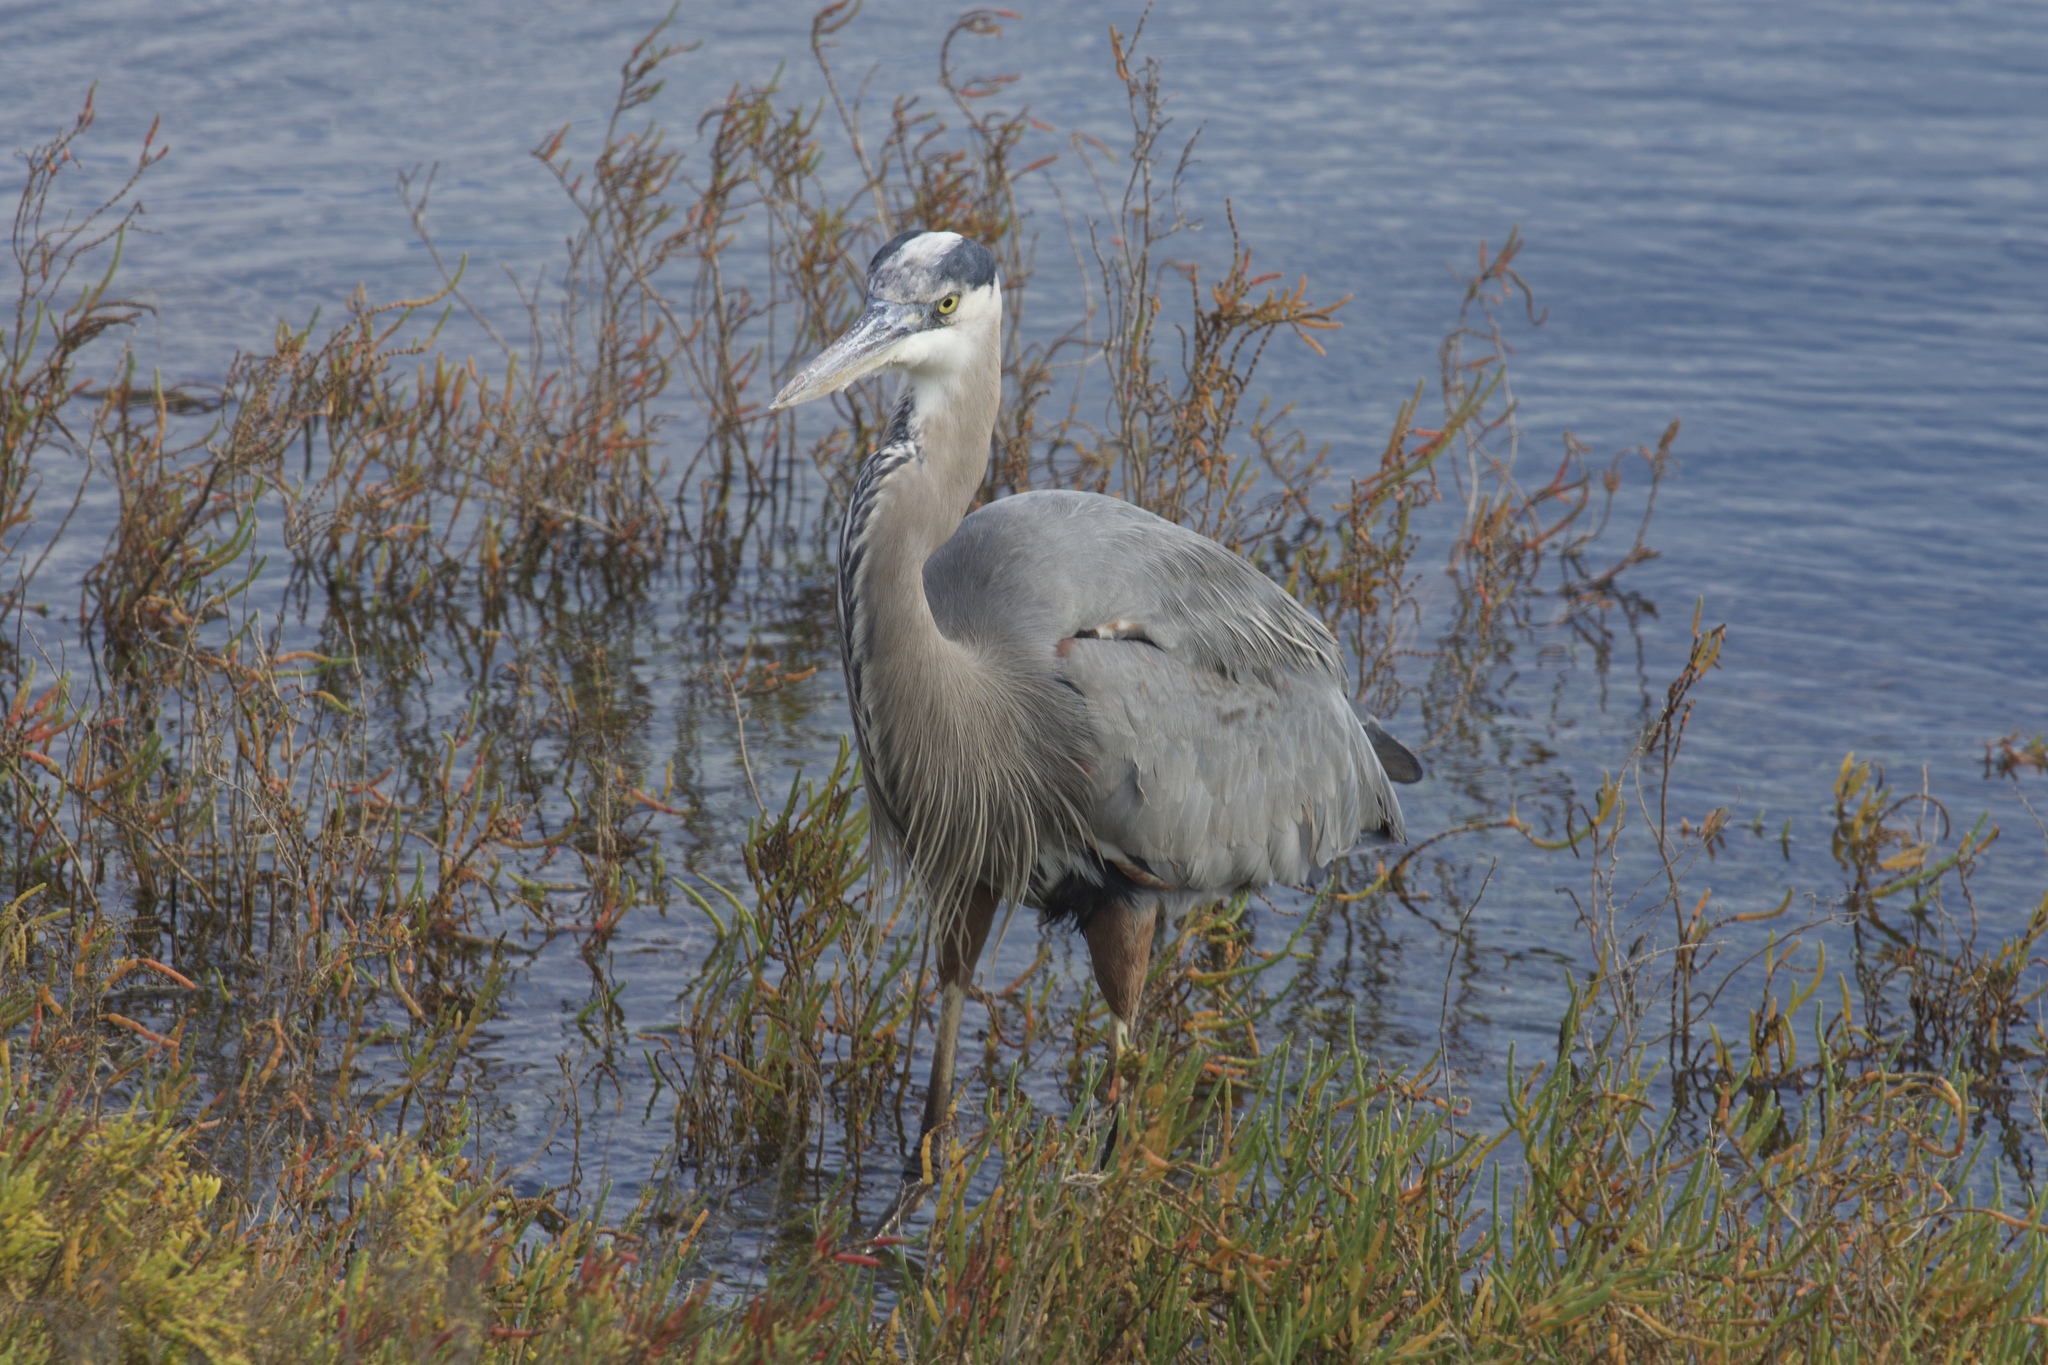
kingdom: Animalia
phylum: Chordata
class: Aves
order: Pelecaniformes
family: Ardeidae
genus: Ardea
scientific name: Ardea herodias
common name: Great blue heron
